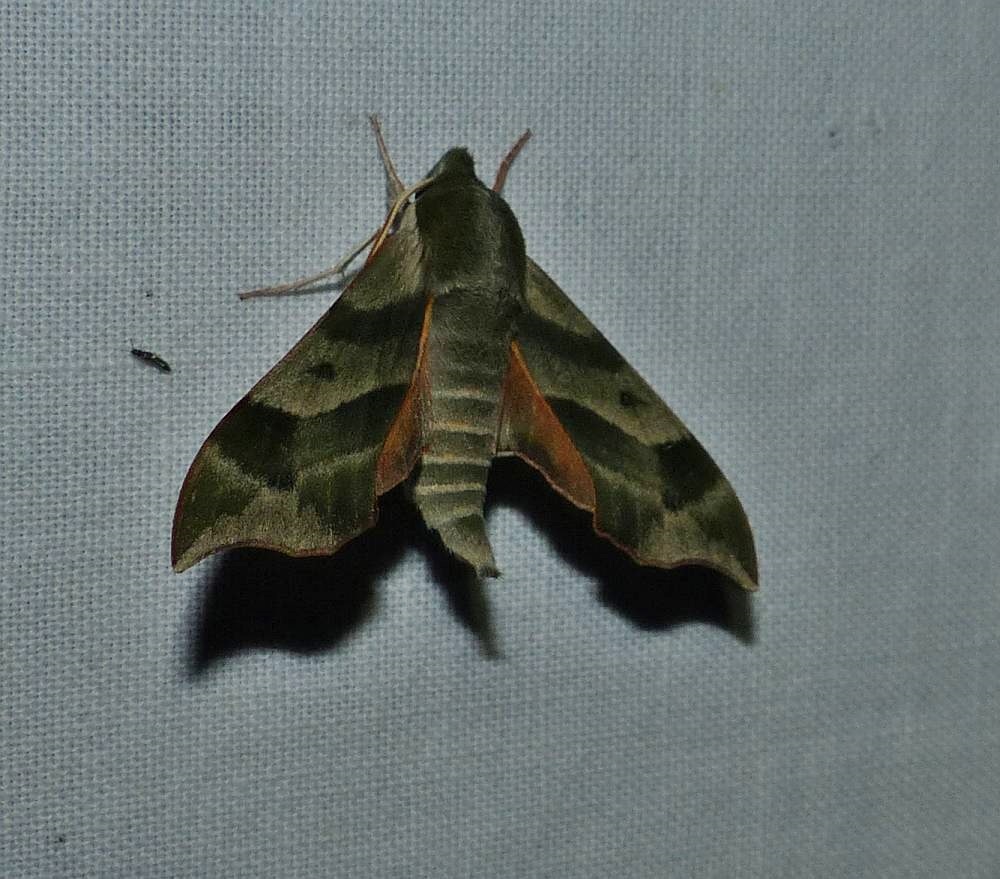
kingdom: Animalia
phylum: Arthropoda
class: Insecta
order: Lepidoptera
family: Sphingidae
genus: Darapsa
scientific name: Darapsa myron
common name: Hog sphinx
